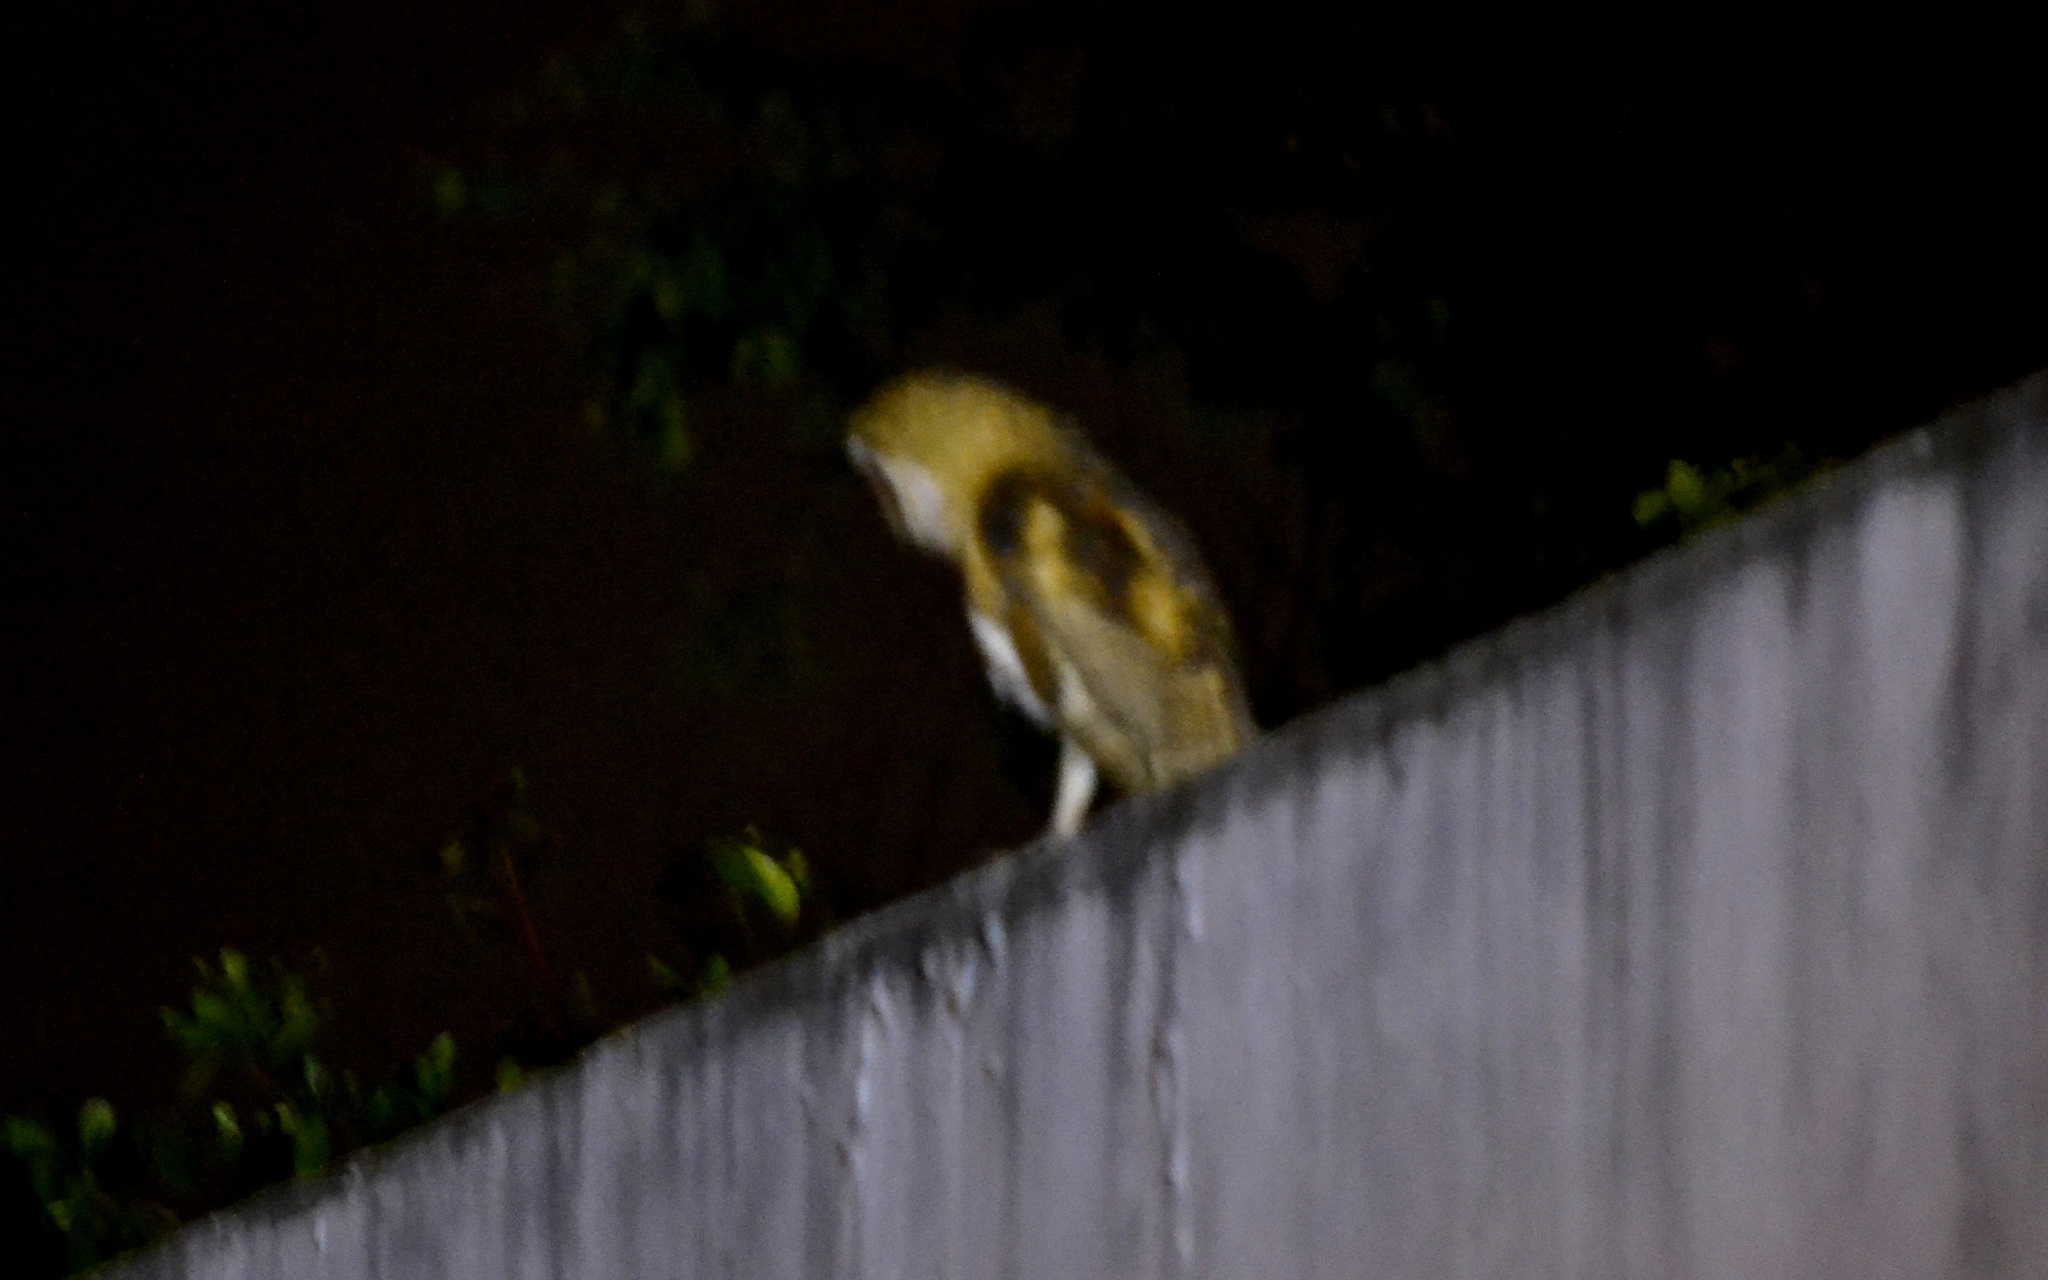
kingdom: Animalia
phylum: Chordata
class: Aves
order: Strigiformes
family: Tytonidae
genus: Tyto
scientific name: Tyto alba
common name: Barn owl
